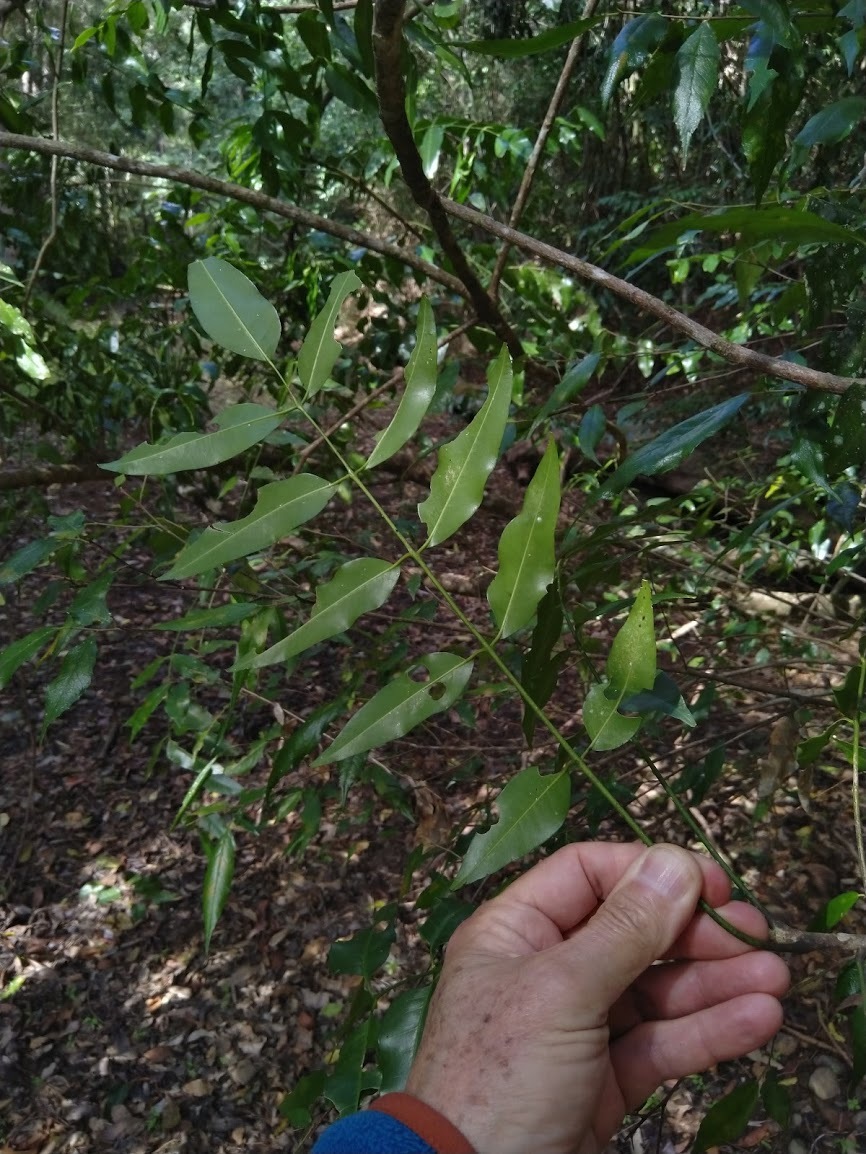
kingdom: Plantae
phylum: Tracheophyta
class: Magnoliopsida
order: Sapindales
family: Rutaceae
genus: Pentaceras
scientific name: Pentaceras australe
